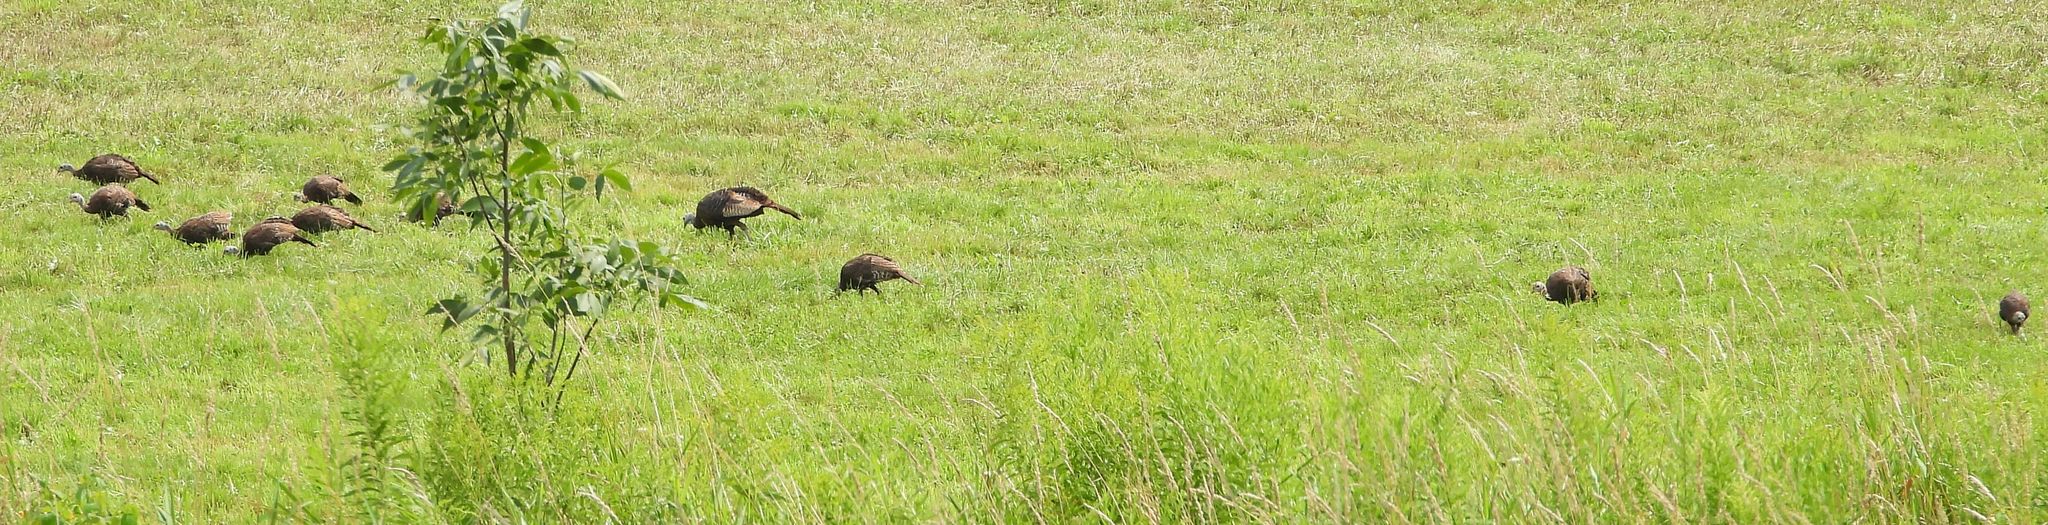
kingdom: Animalia
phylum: Chordata
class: Aves
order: Galliformes
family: Phasianidae
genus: Meleagris
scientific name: Meleagris gallopavo
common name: Wild turkey
